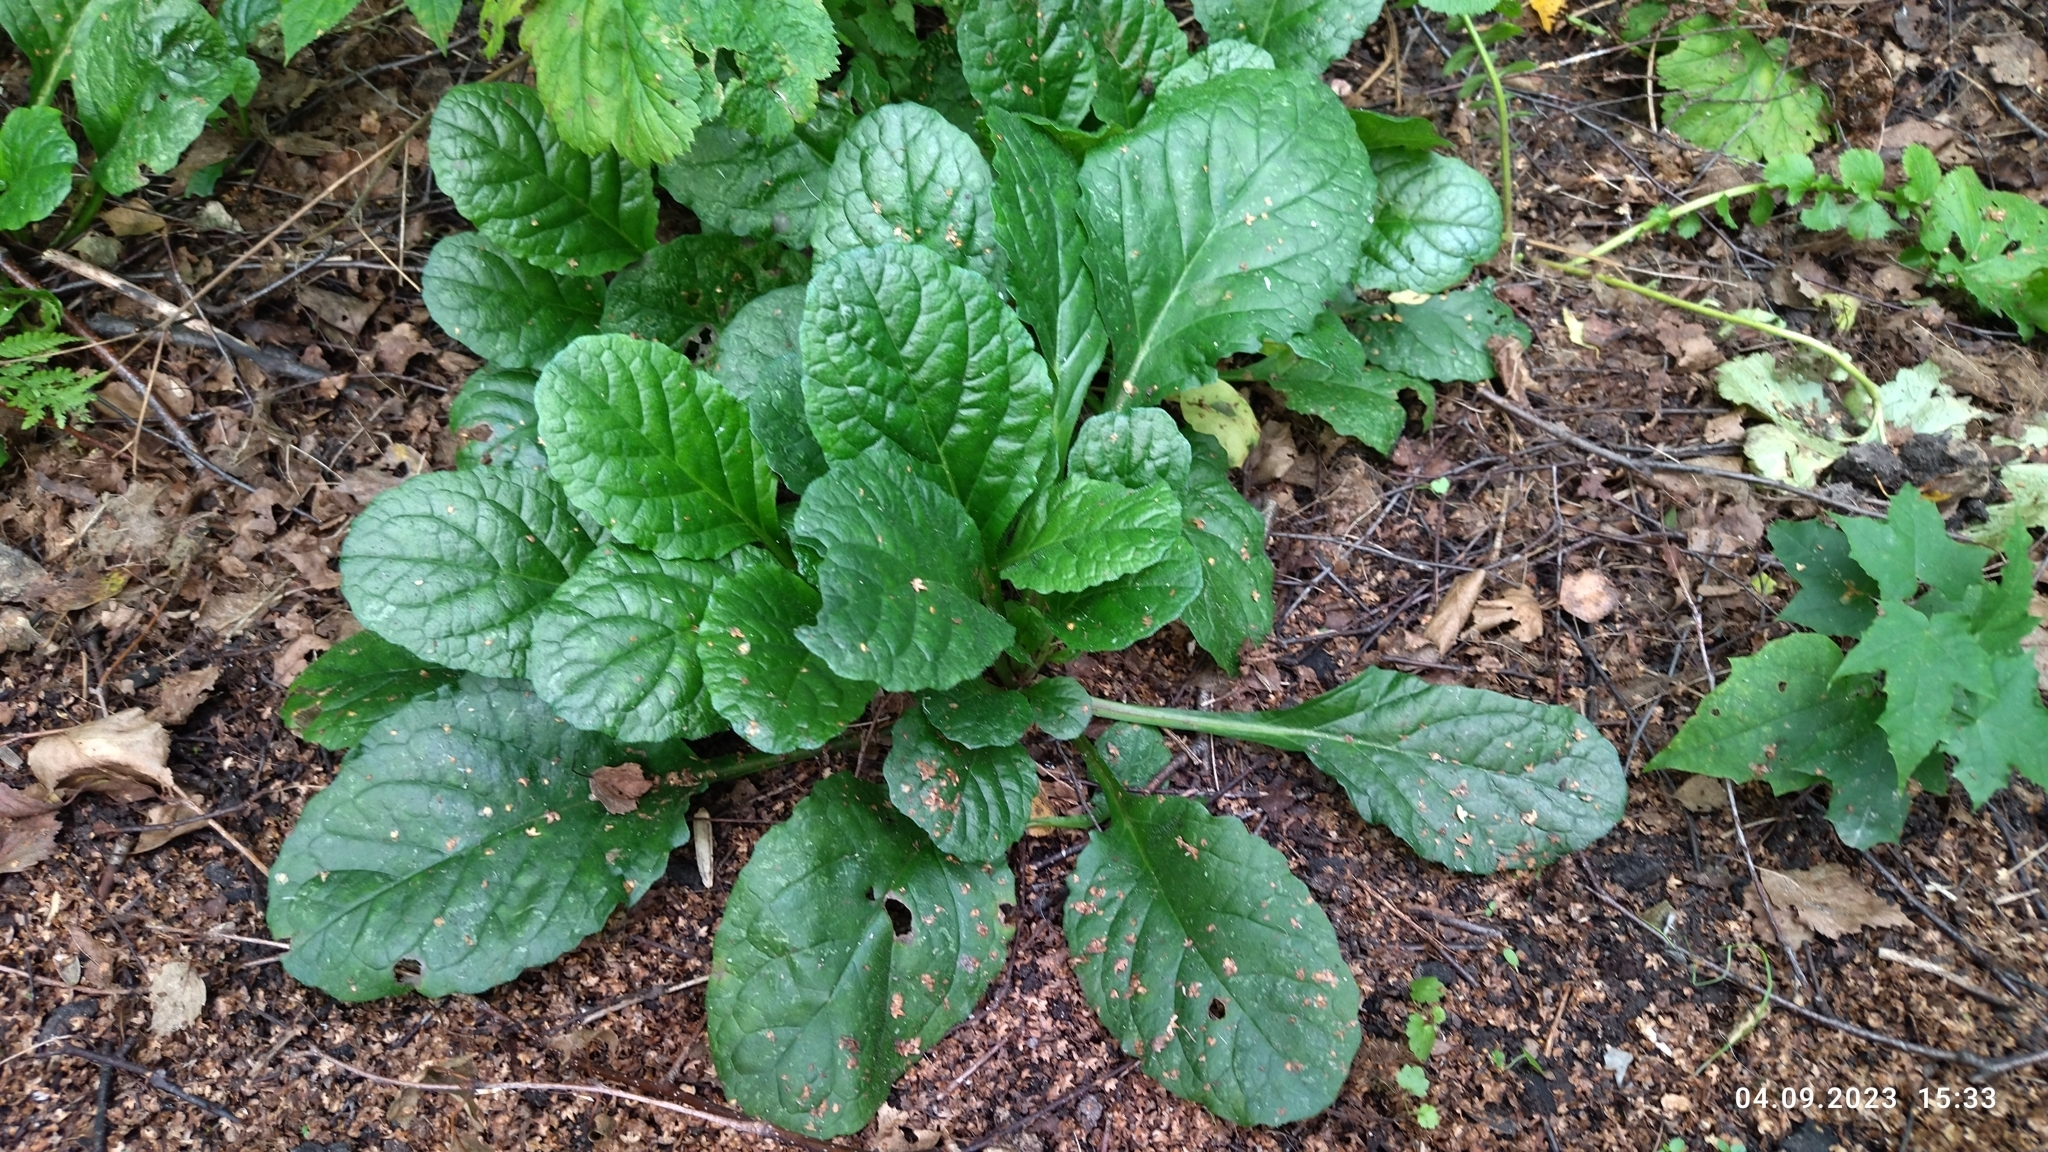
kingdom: Plantae
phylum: Tracheophyta
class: Magnoliopsida
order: Lamiales
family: Lamiaceae
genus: Ajuga
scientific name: Ajuga reptans
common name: Bugle
